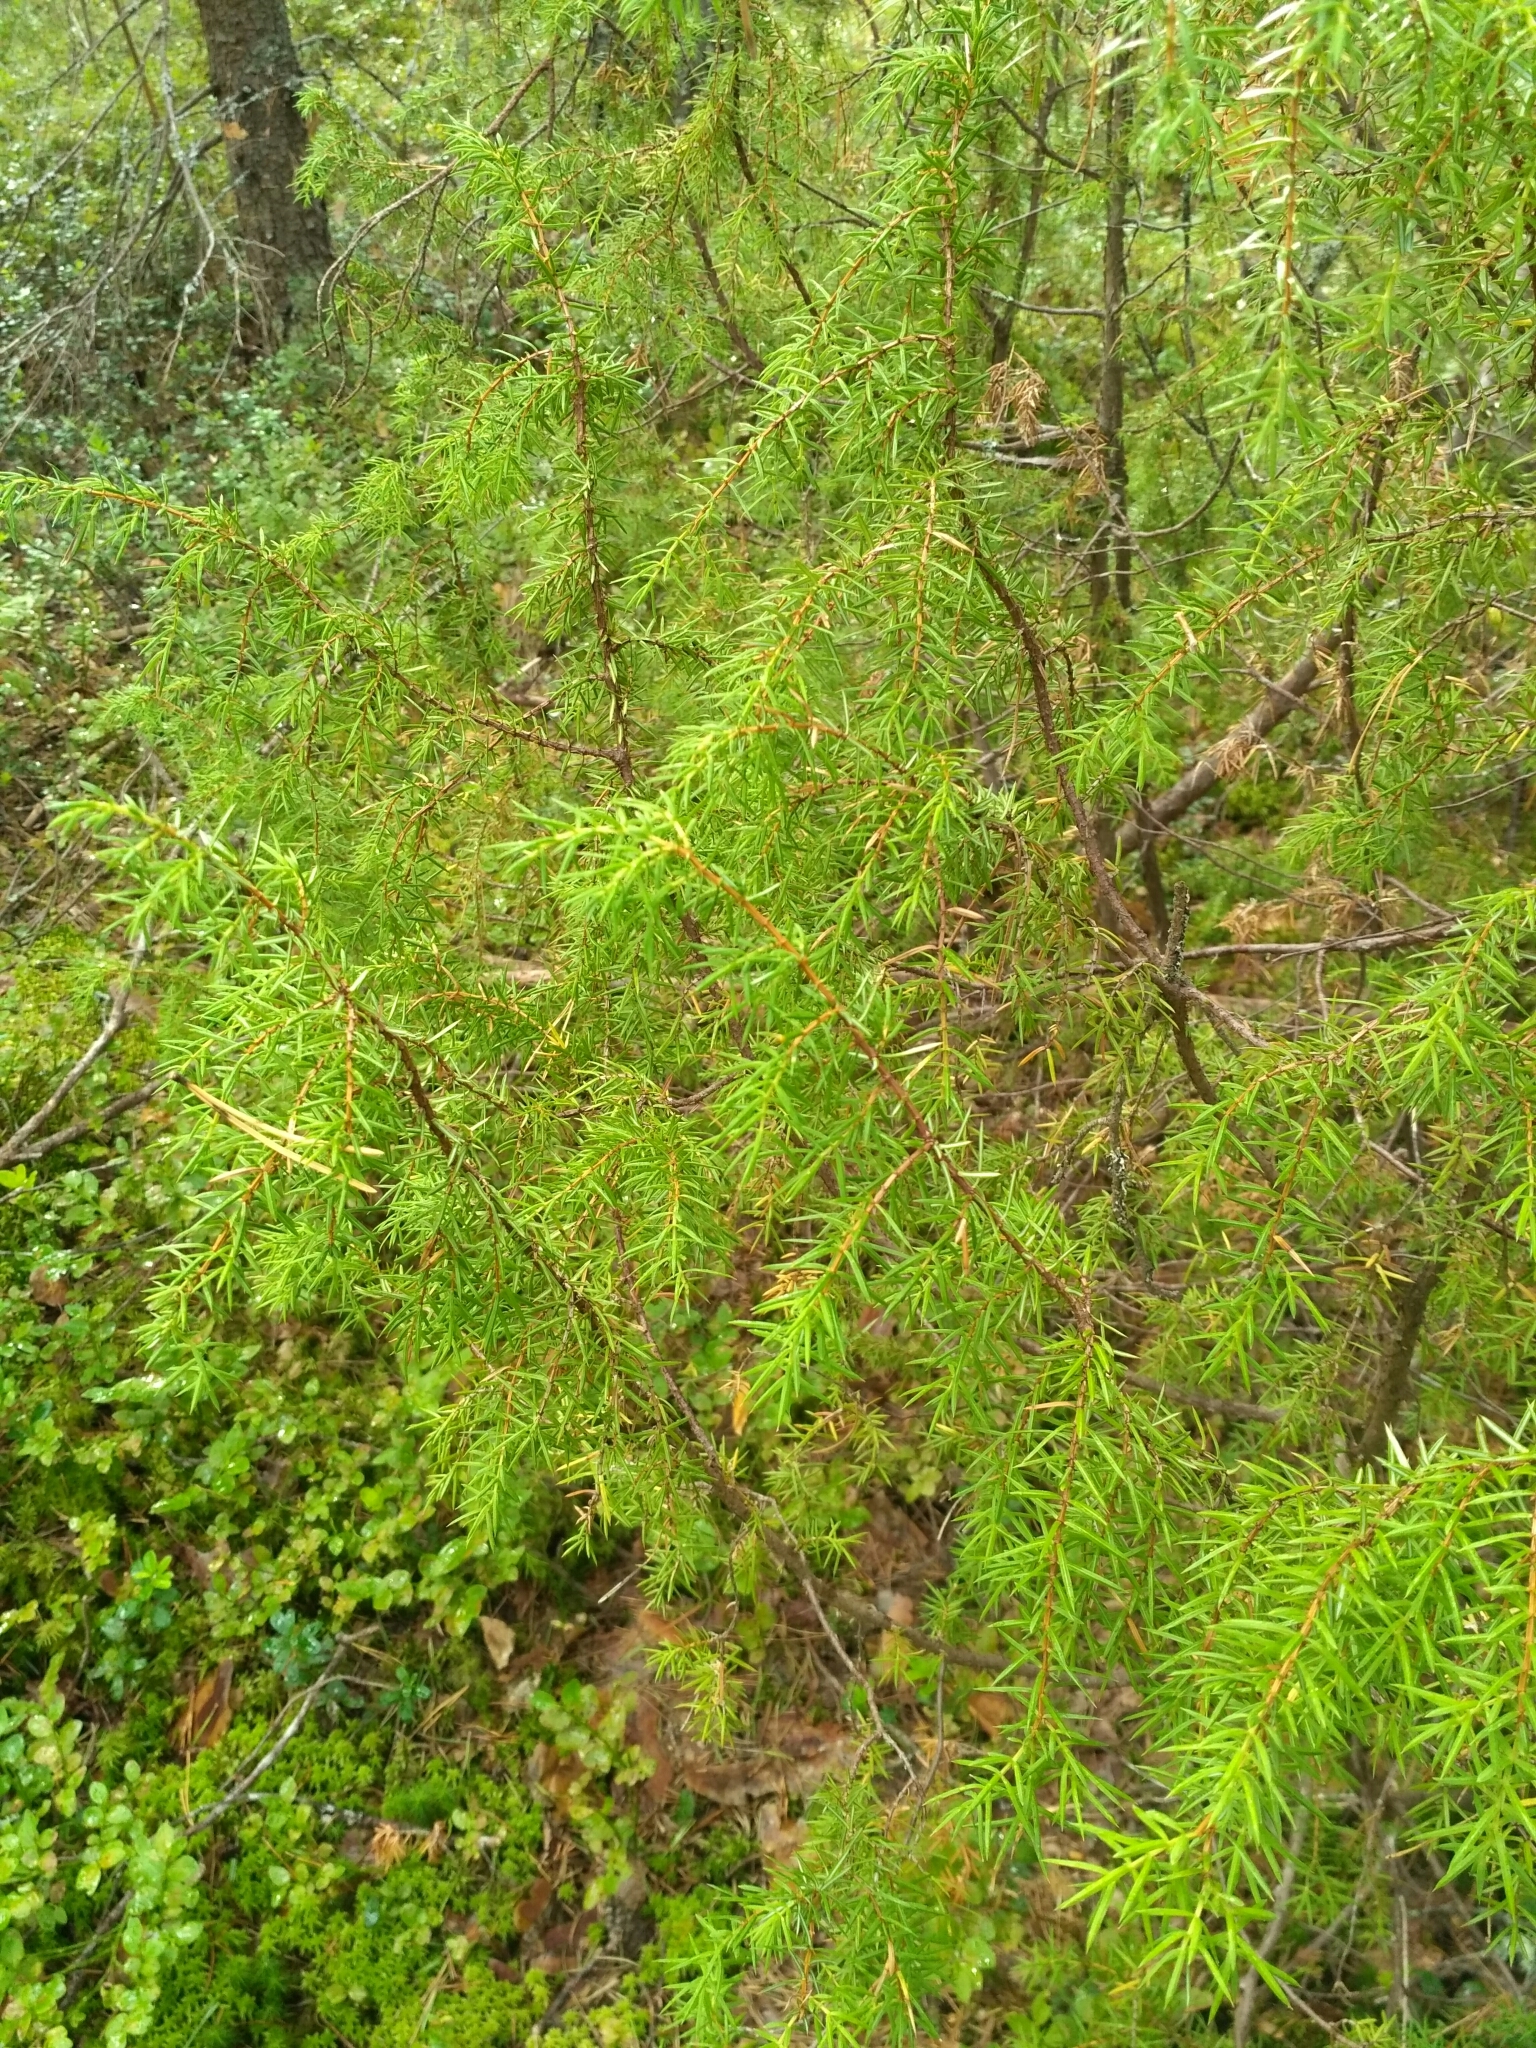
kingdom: Plantae
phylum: Tracheophyta
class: Pinopsida
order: Pinales
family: Cupressaceae
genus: Juniperus
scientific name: Juniperus communis
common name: Common juniper
